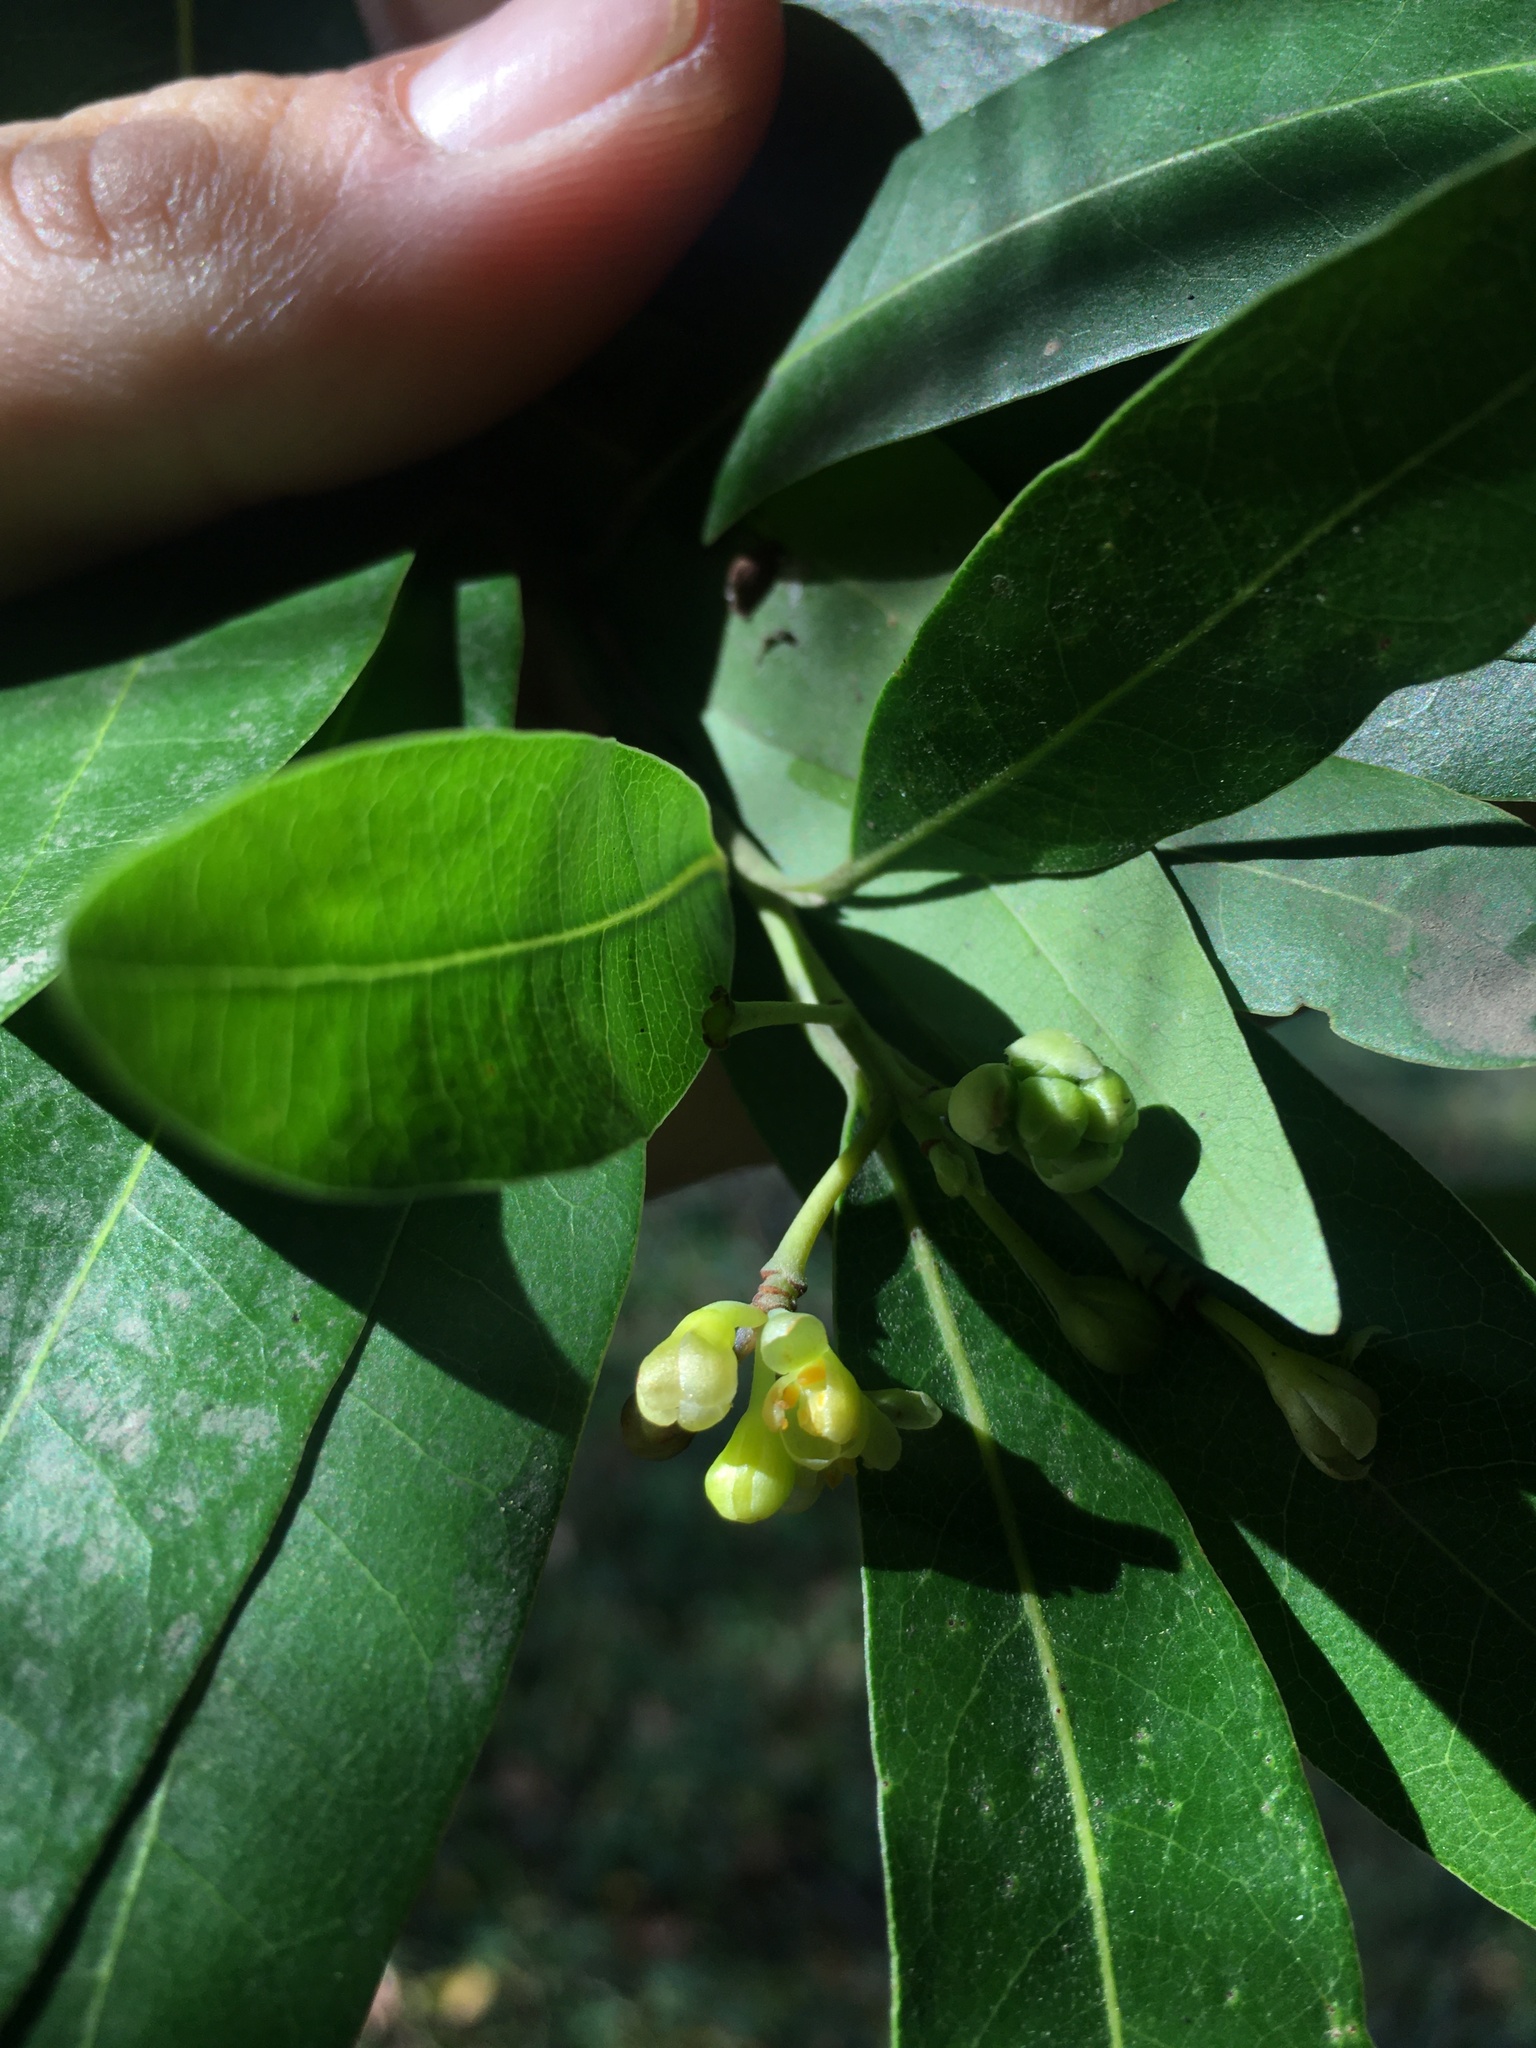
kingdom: Plantae
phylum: Tracheophyta
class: Magnoliopsida
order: Laurales
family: Lauraceae
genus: Umbellularia
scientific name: Umbellularia californica
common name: California bay
